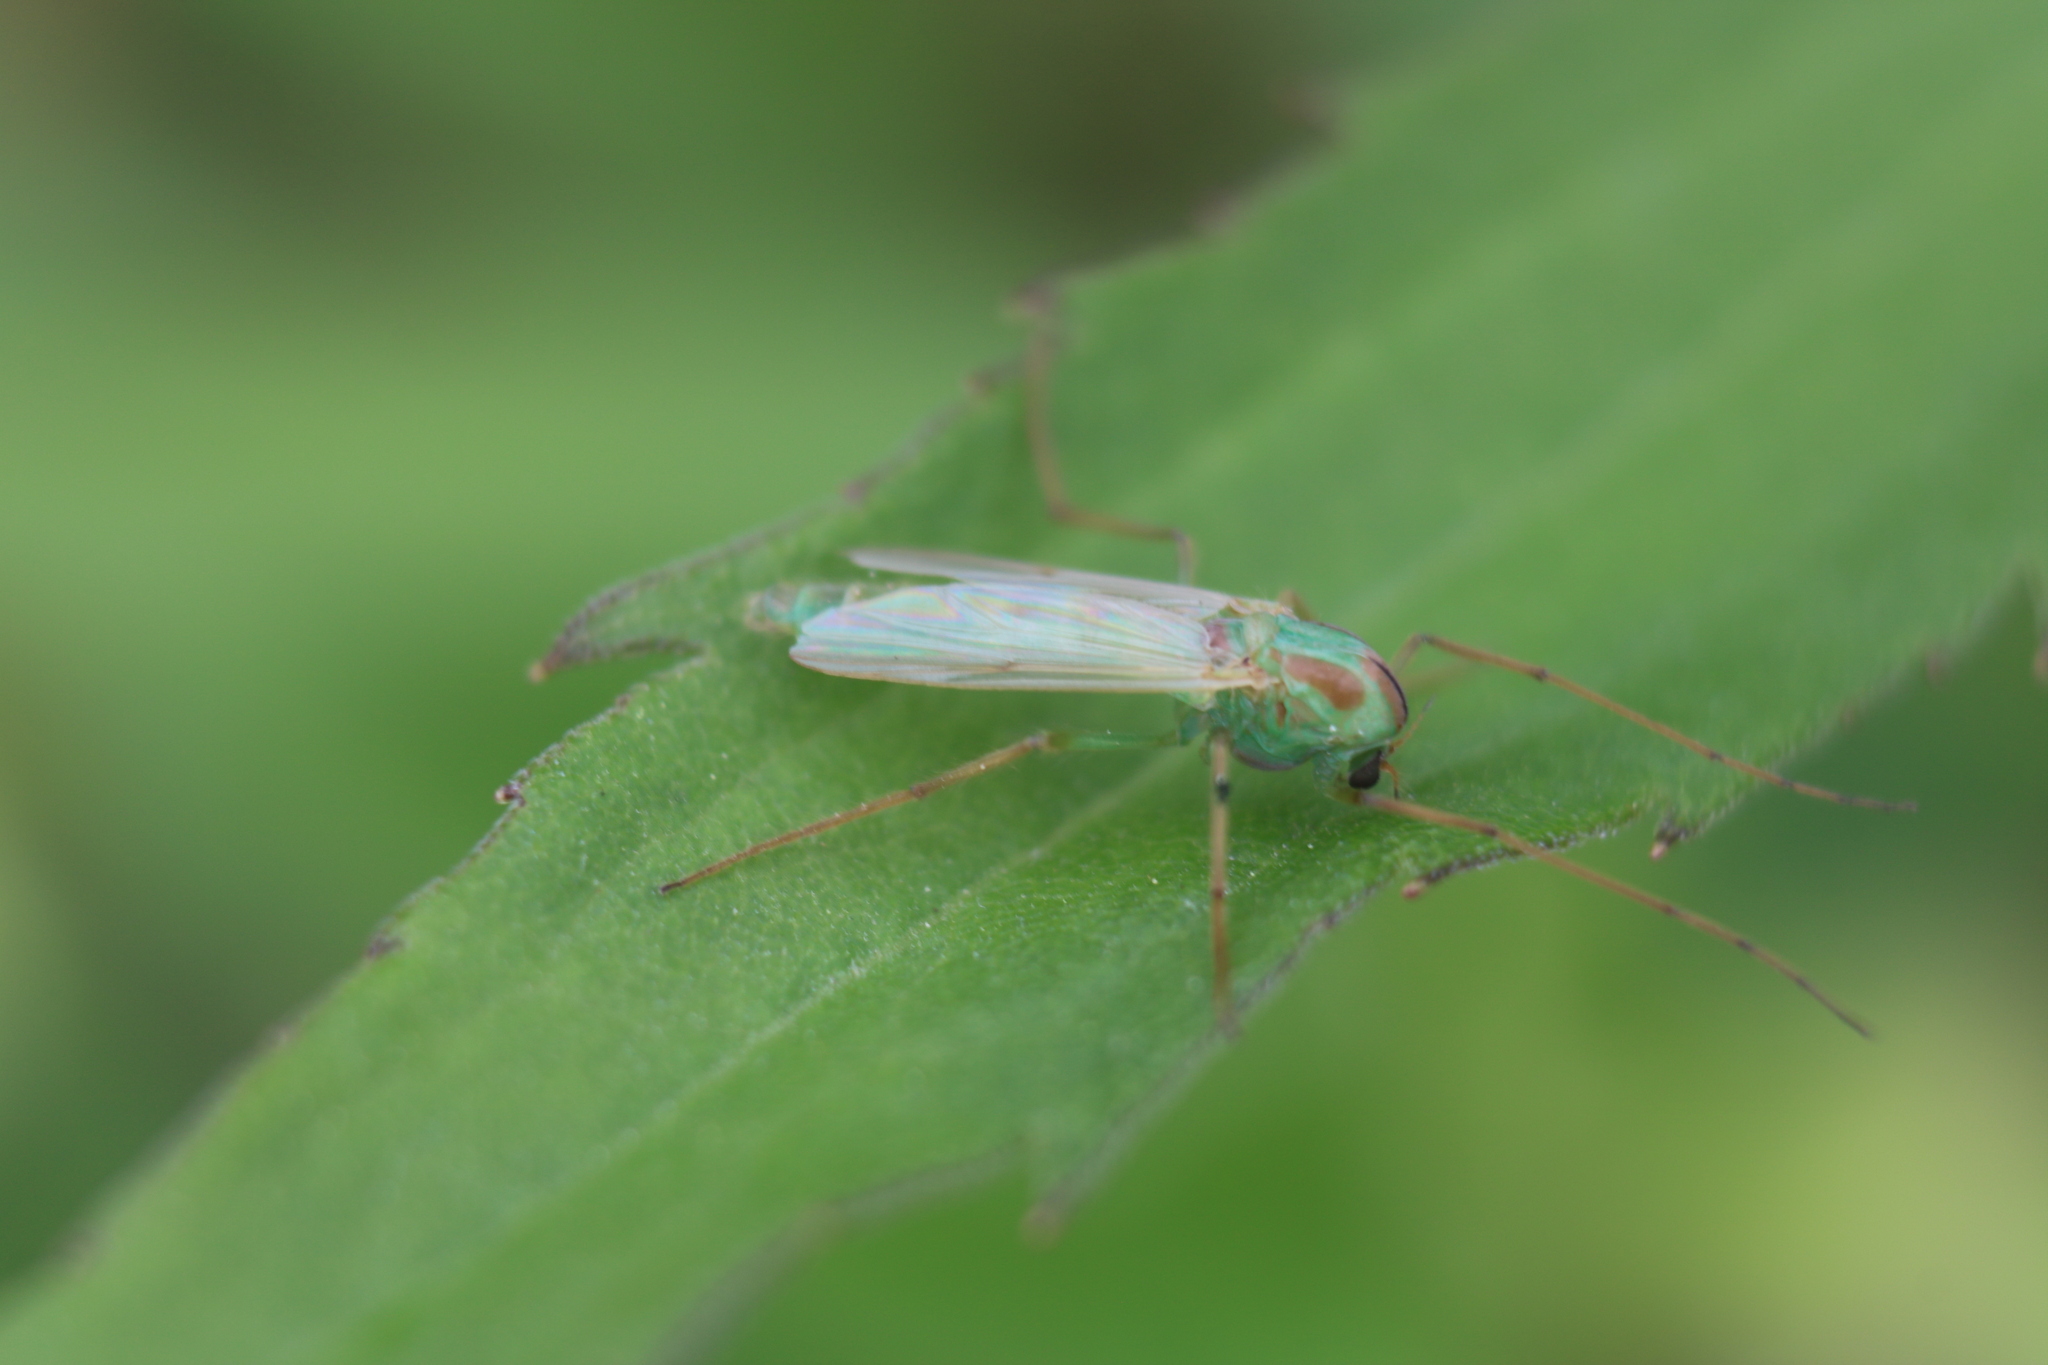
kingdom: Animalia
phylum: Arthropoda
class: Insecta
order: Diptera
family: Chironomidae
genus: Axarus
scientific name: Axarus
